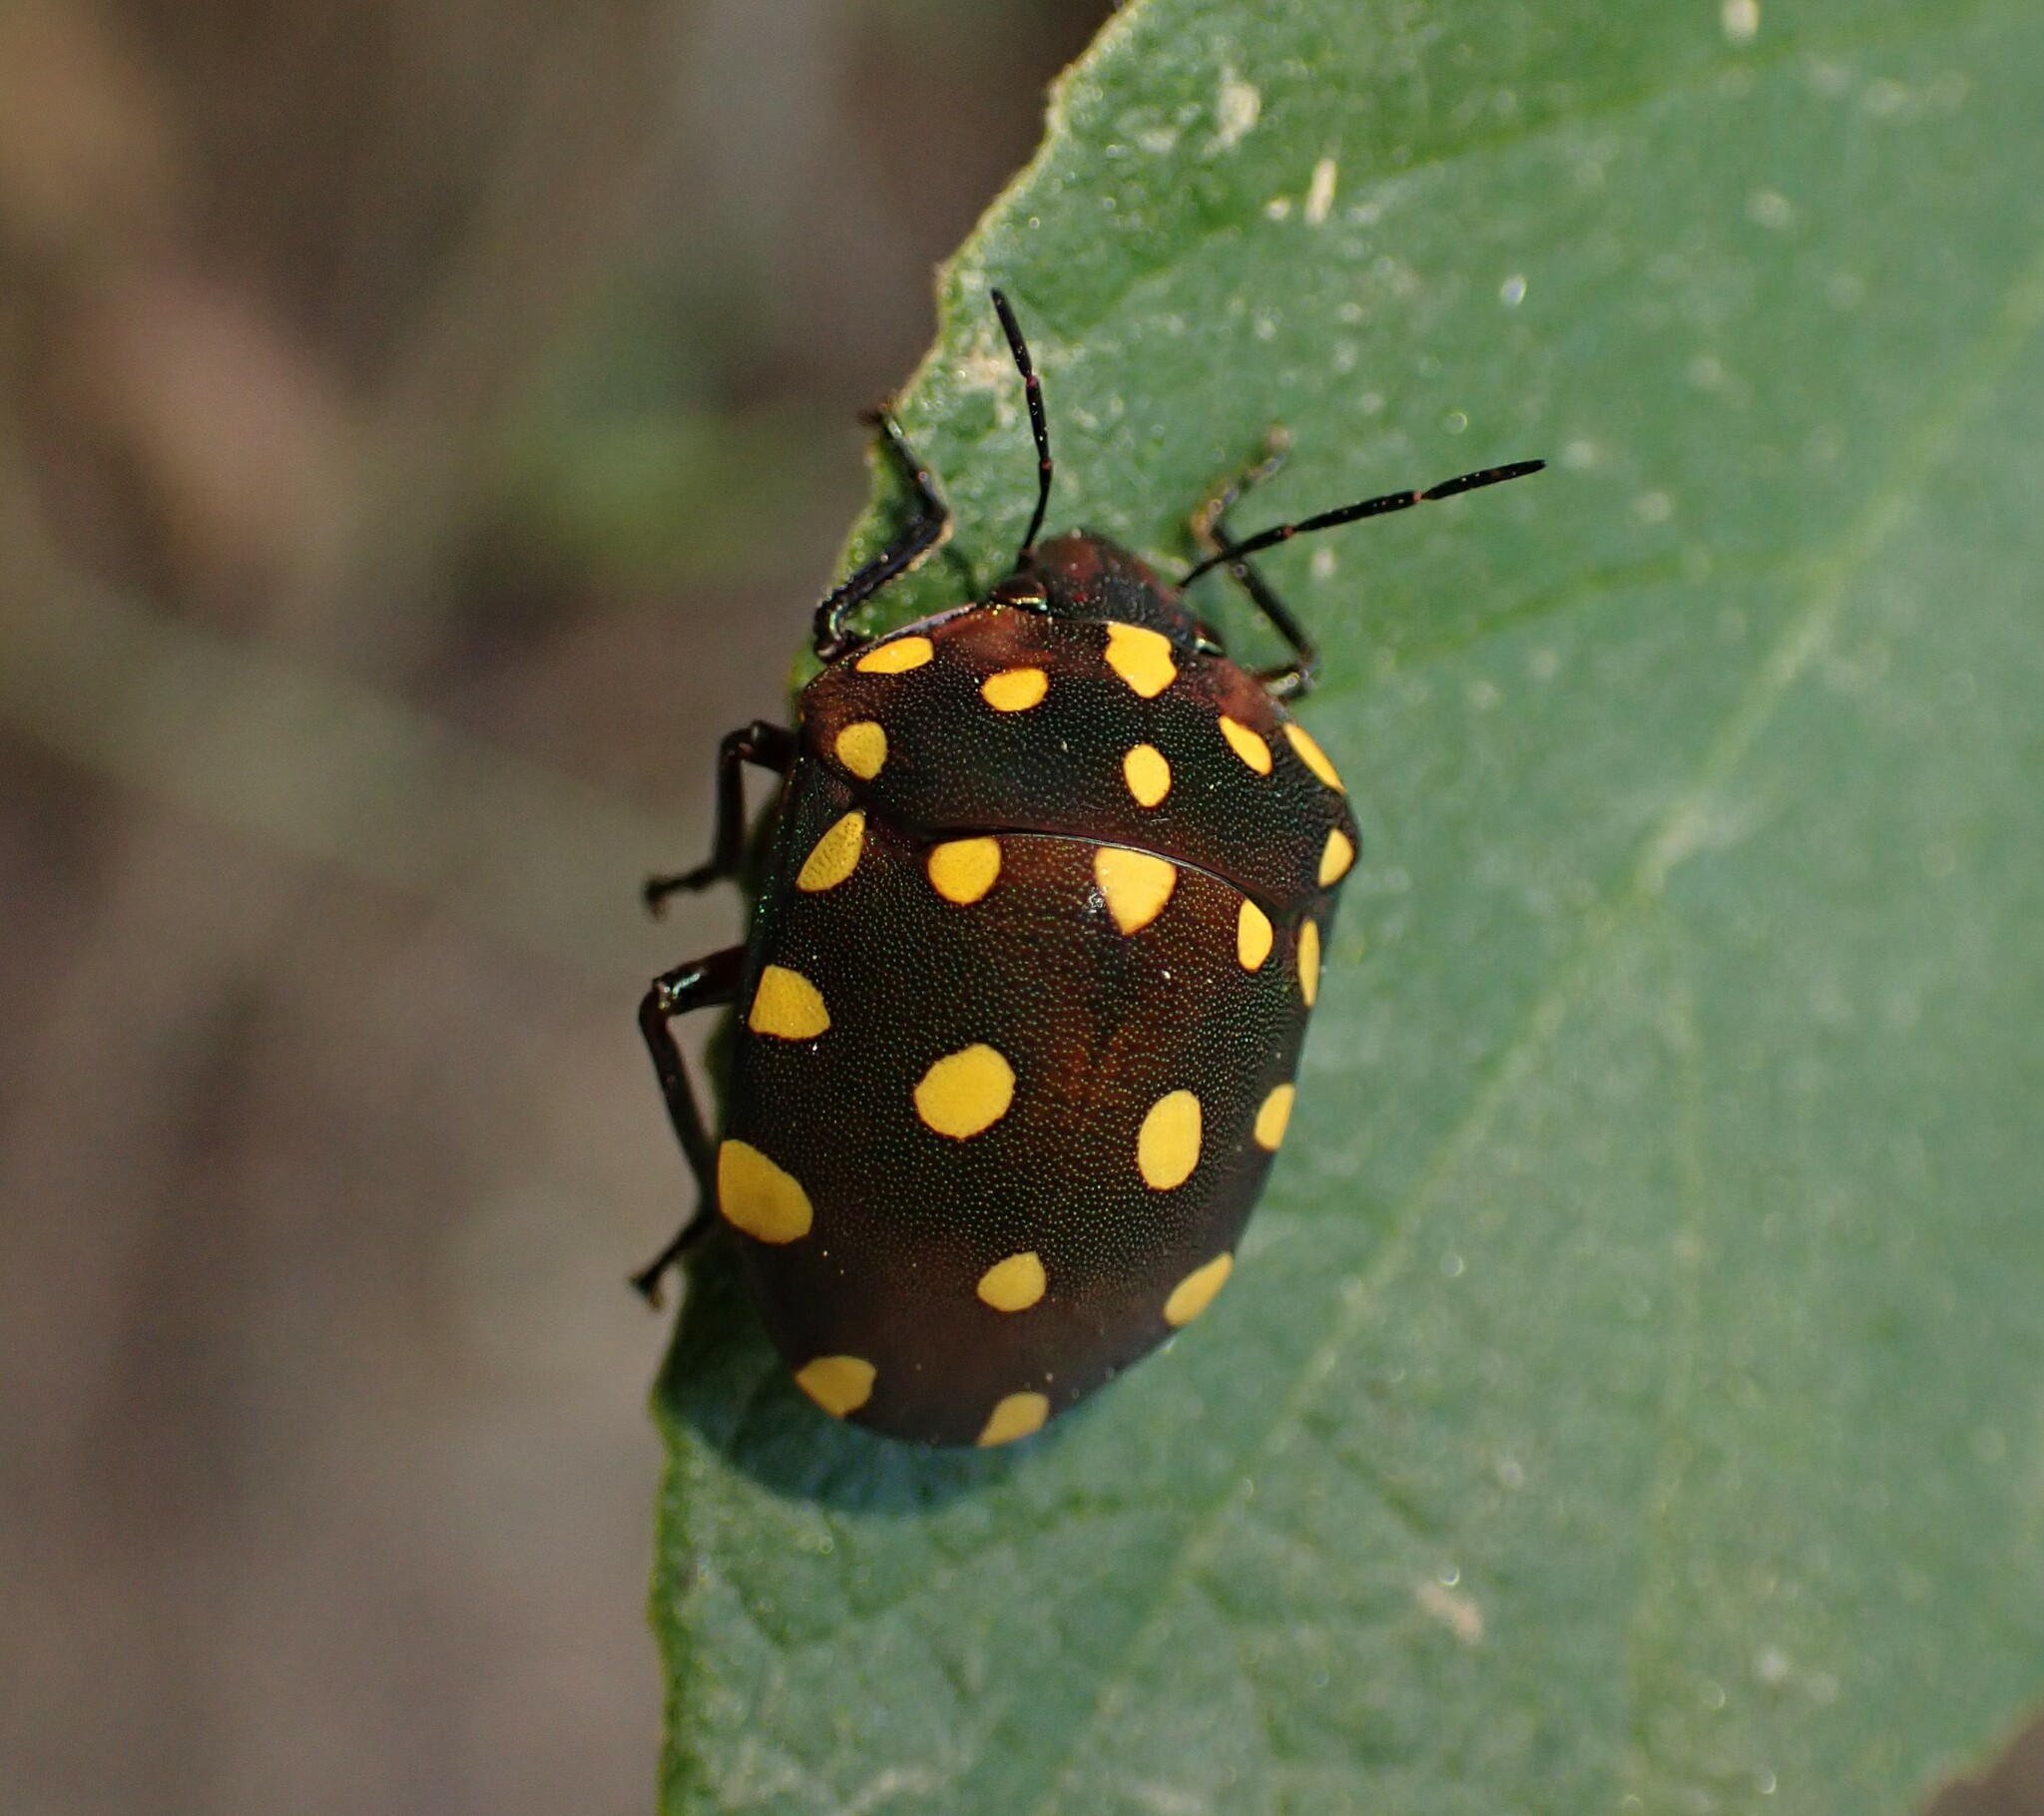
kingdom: Animalia
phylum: Arthropoda
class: Insecta
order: Hemiptera
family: Scutelleridae
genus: Pachycoris
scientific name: Pachycoris torridus
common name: Torrid jewel bug
